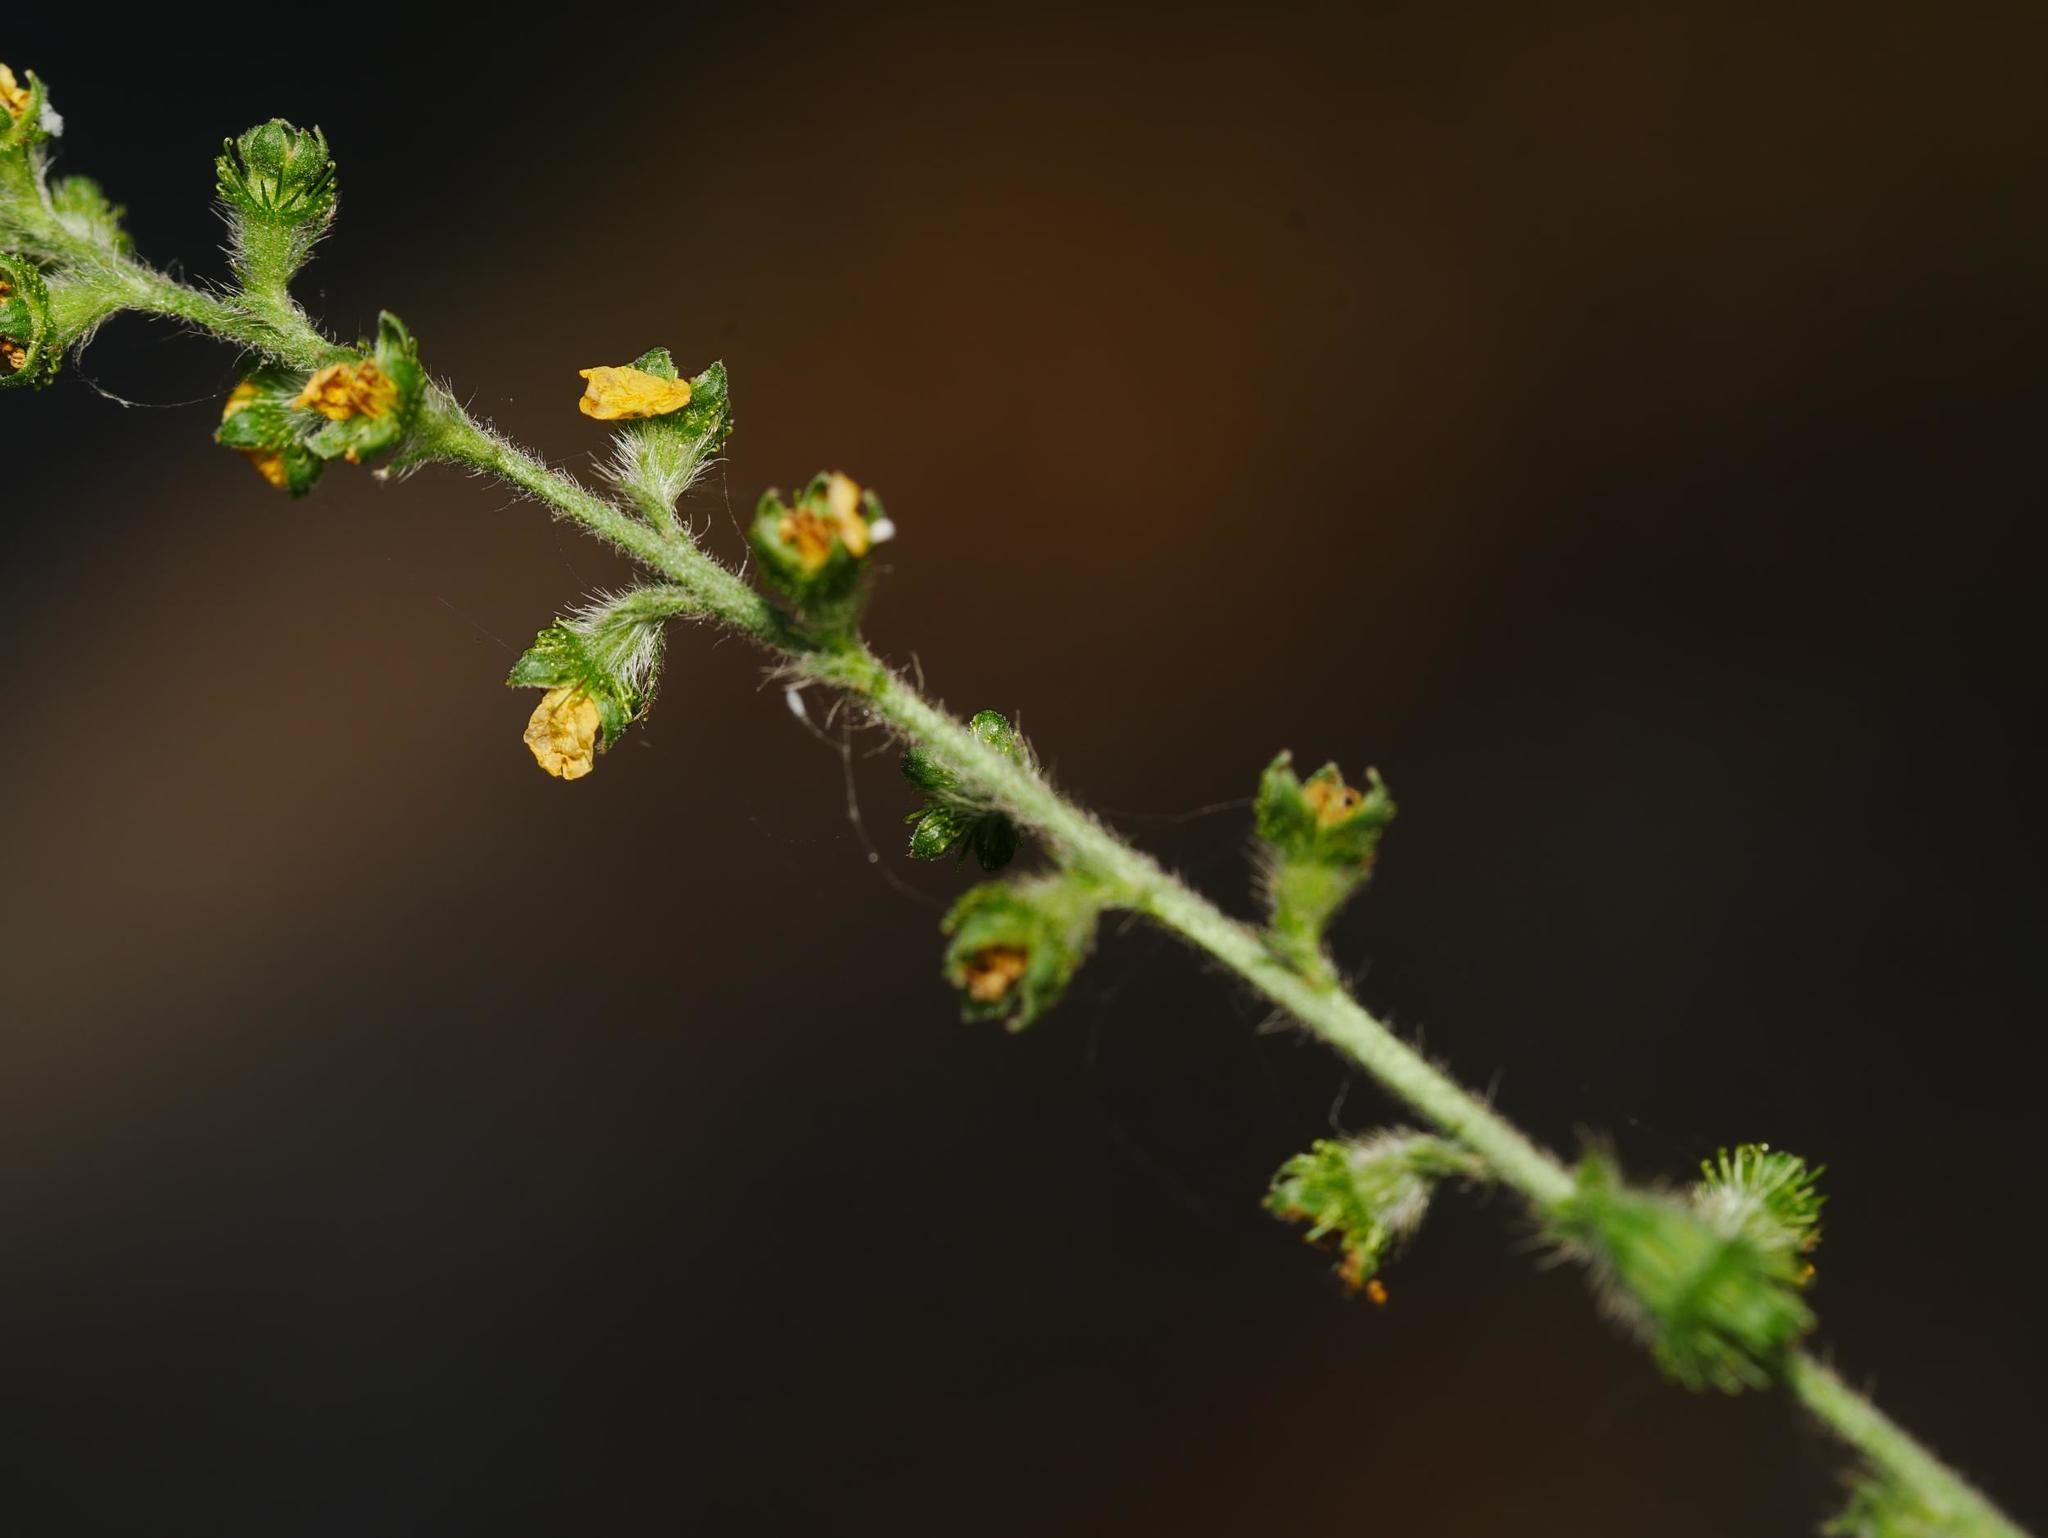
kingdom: Plantae
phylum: Tracheophyta
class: Magnoliopsida
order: Rosales
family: Rosaceae
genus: Agrimonia
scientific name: Agrimonia eupatoria
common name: Agrimony
